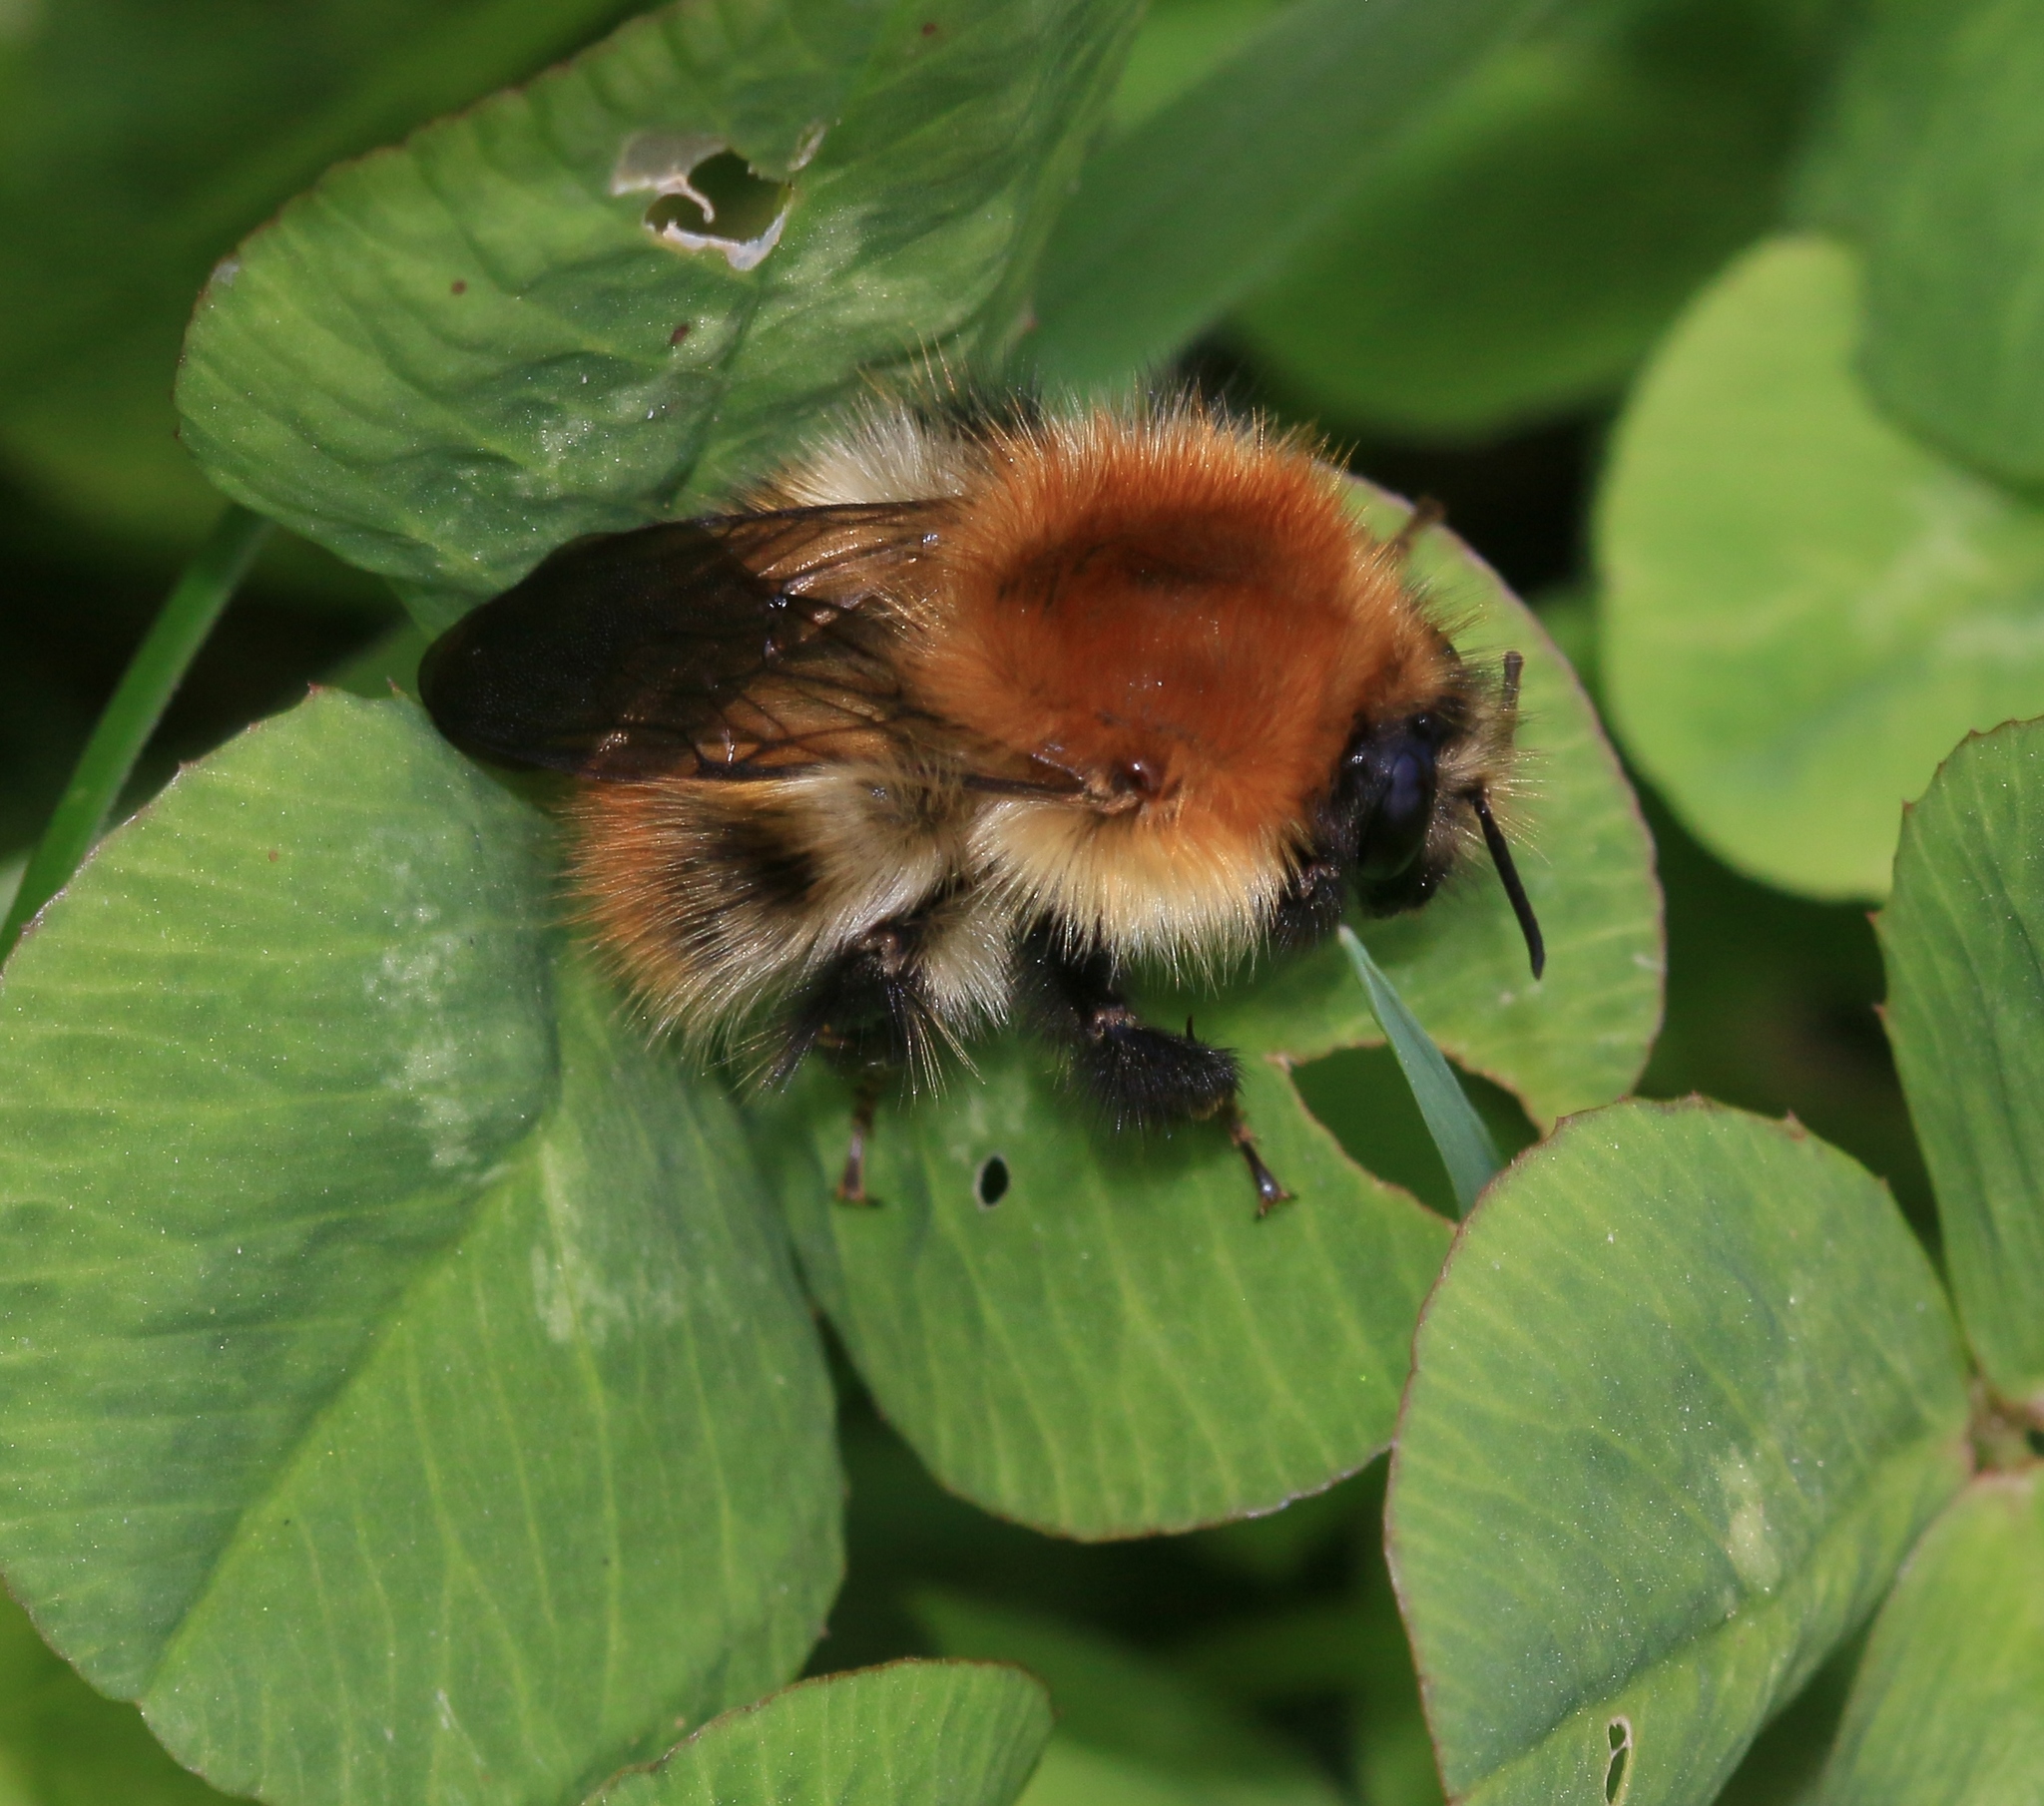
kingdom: Animalia
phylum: Arthropoda
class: Insecta
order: Hymenoptera
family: Apidae
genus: Bombus
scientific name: Bombus pascuorum
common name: Common carder bee
